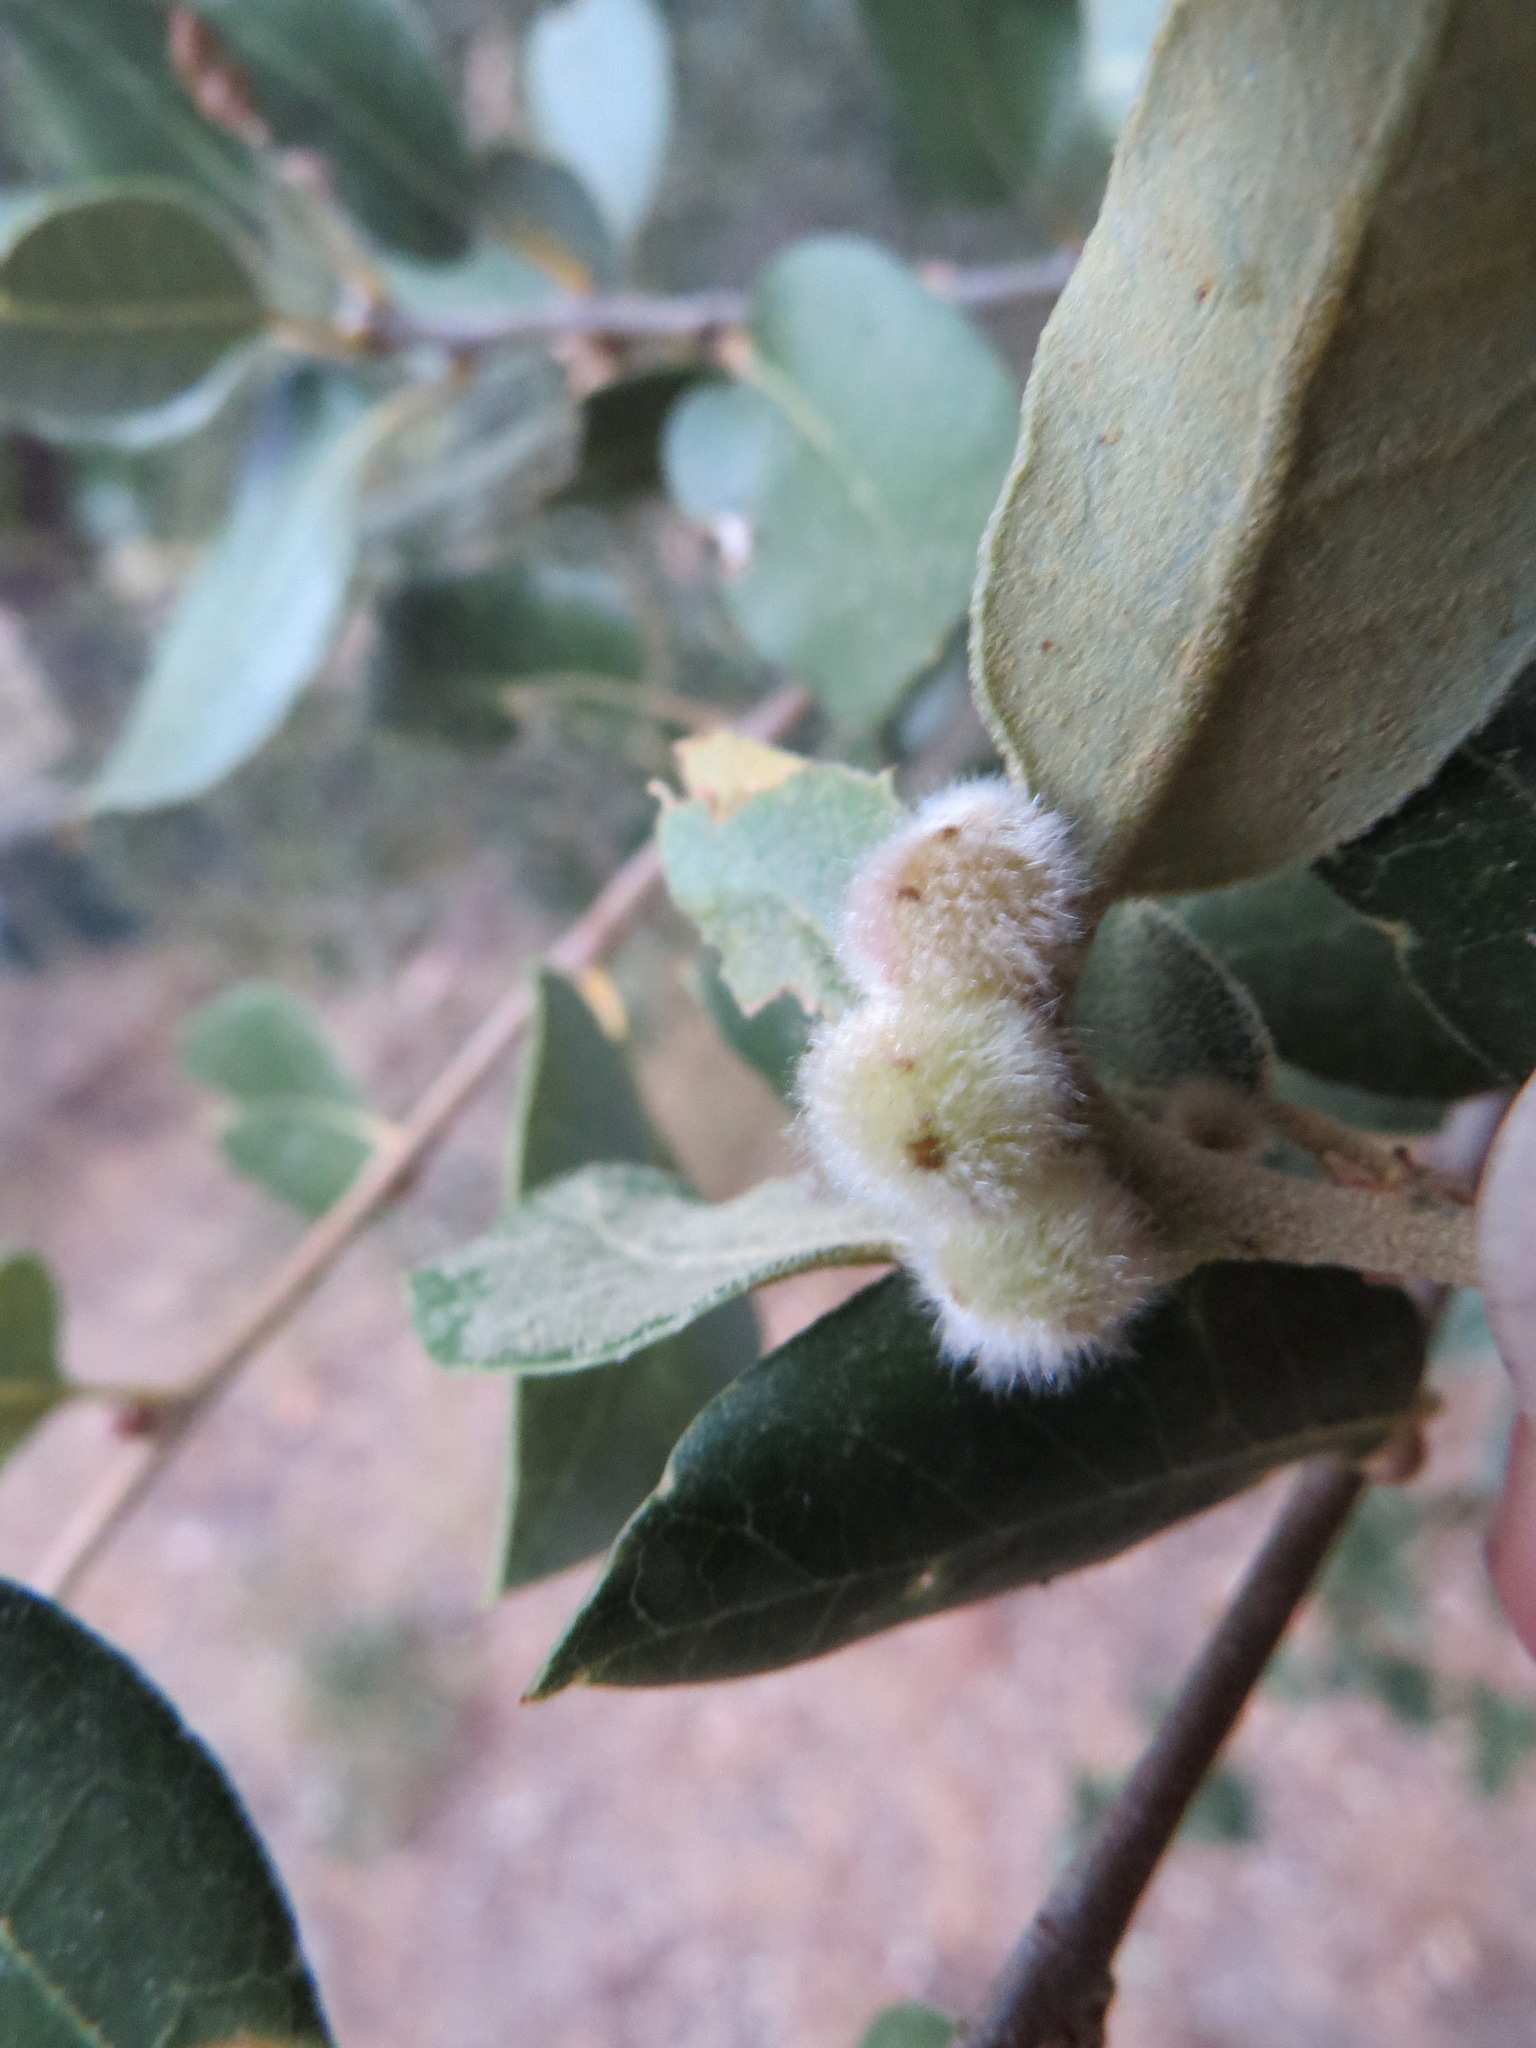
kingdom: Animalia
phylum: Arthropoda
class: Insecta
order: Hymenoptera
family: Cynipidae
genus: Disholandricus
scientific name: Disholandricus
